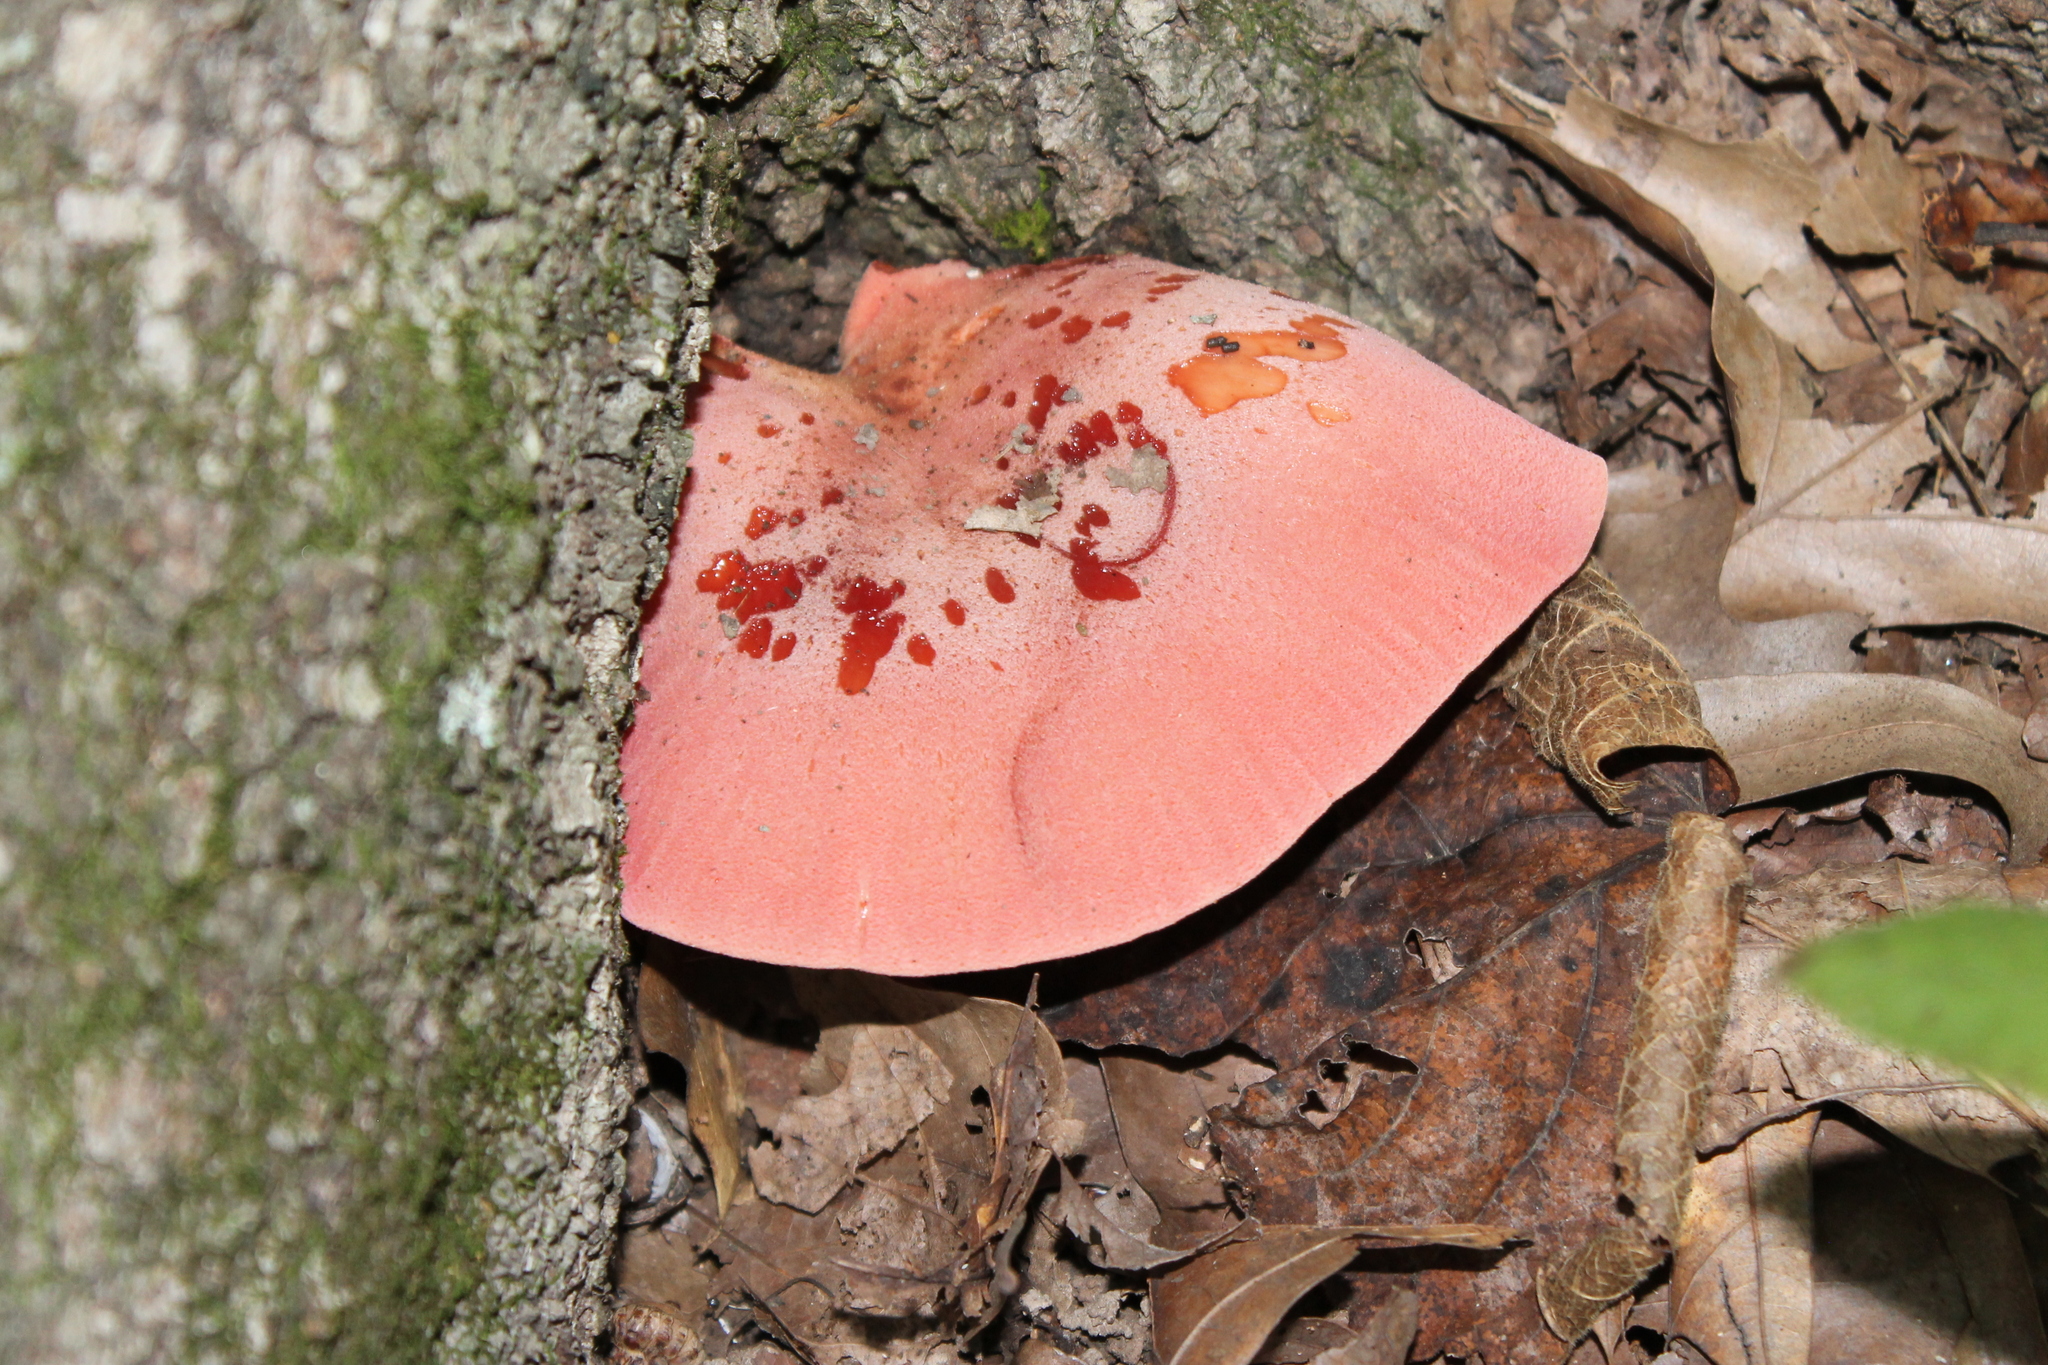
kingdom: Fungi
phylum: Basidiomycota
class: Agaricomycetes
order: Agaricales
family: Fistulinaceae
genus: Fistulina
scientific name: Fistulina hepatica
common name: Beef-steak fungus
